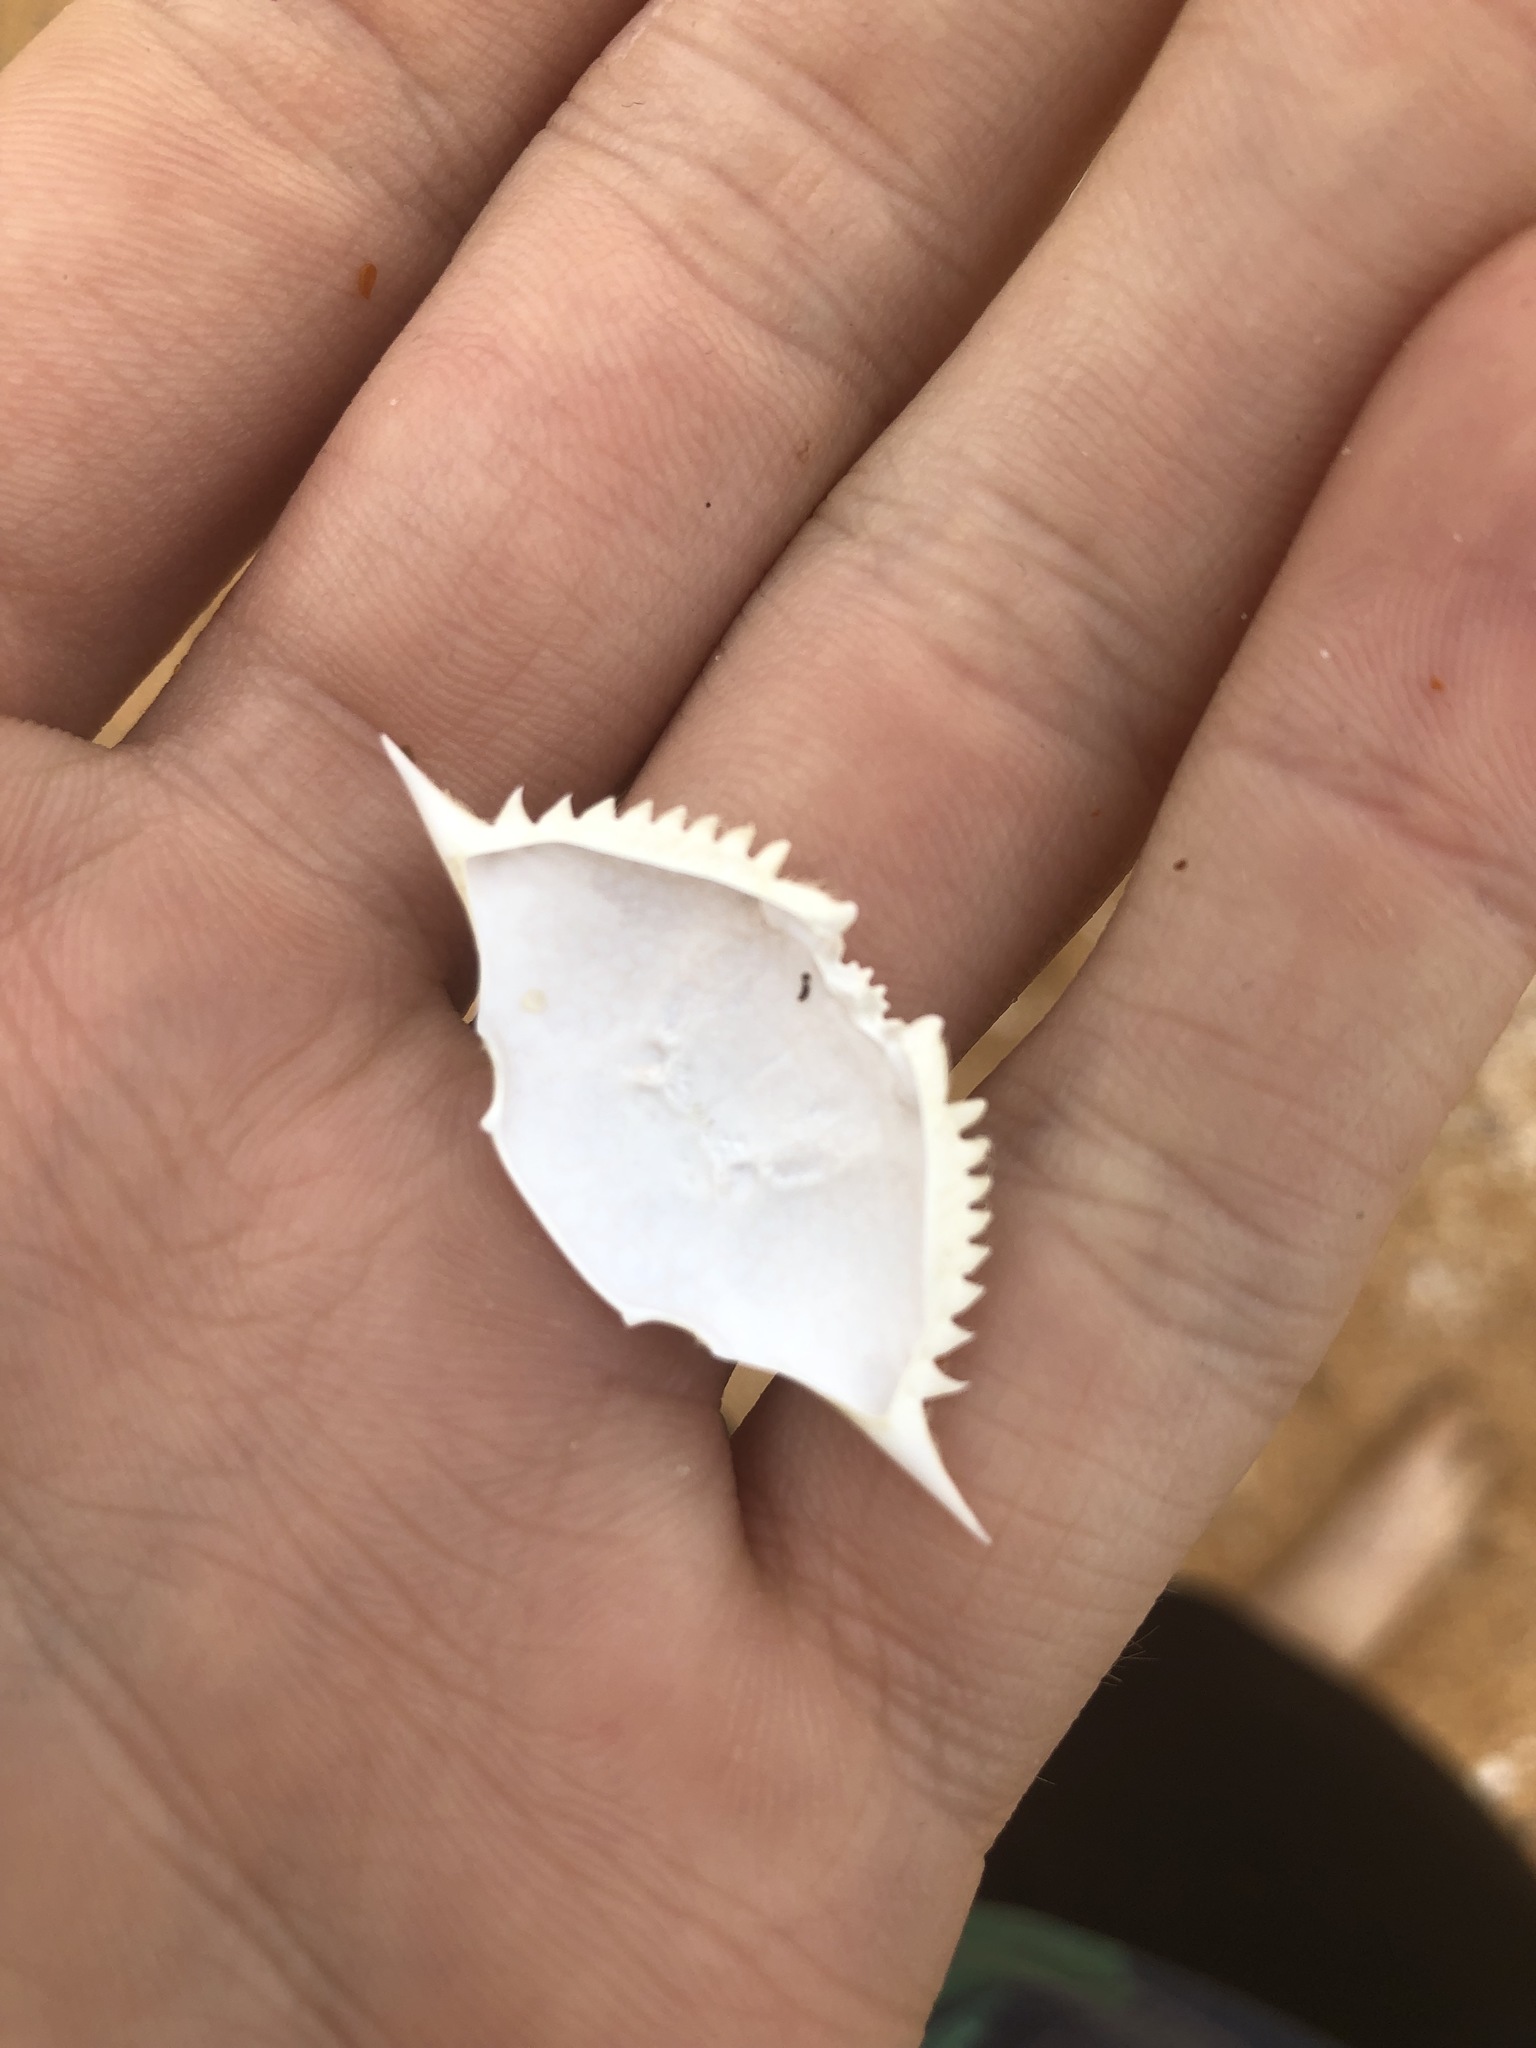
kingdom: Animalia
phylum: Arthropoda
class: Malacostraca
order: Decapoda
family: Portunidae
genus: Arenaeus
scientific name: Arenaeus cribrarius
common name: Speckled crab
